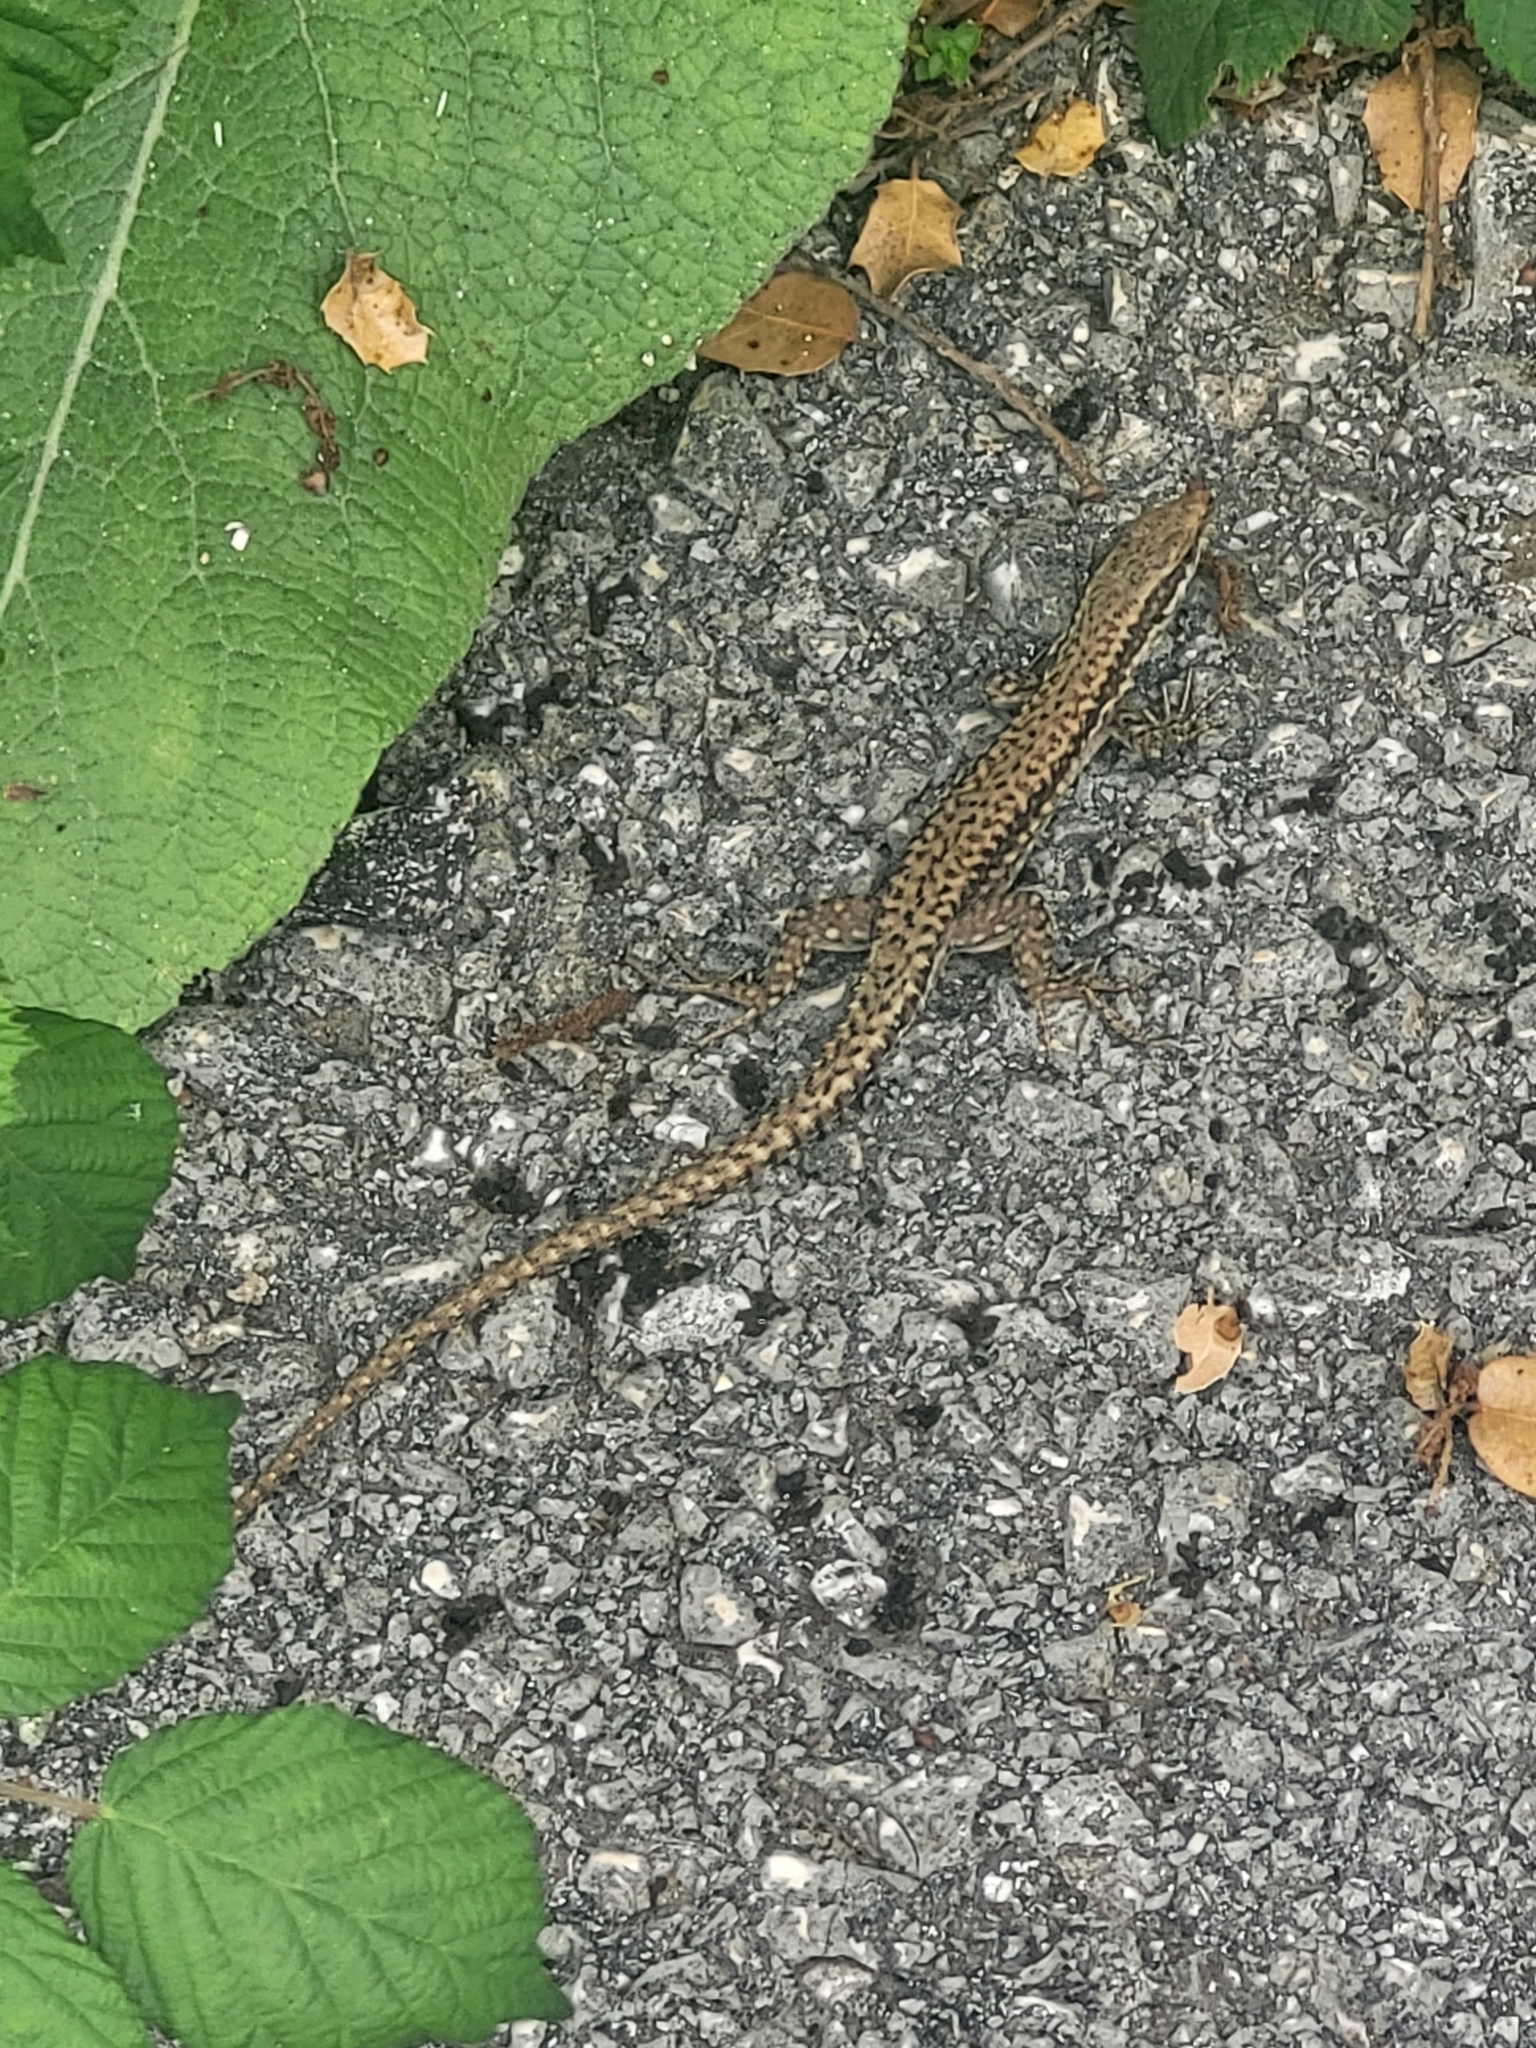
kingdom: Animalia
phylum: Chordata
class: Squamata
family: Lacertidae
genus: Podarcis
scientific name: Podarcis erhardii
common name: Erhard's wall lizard
